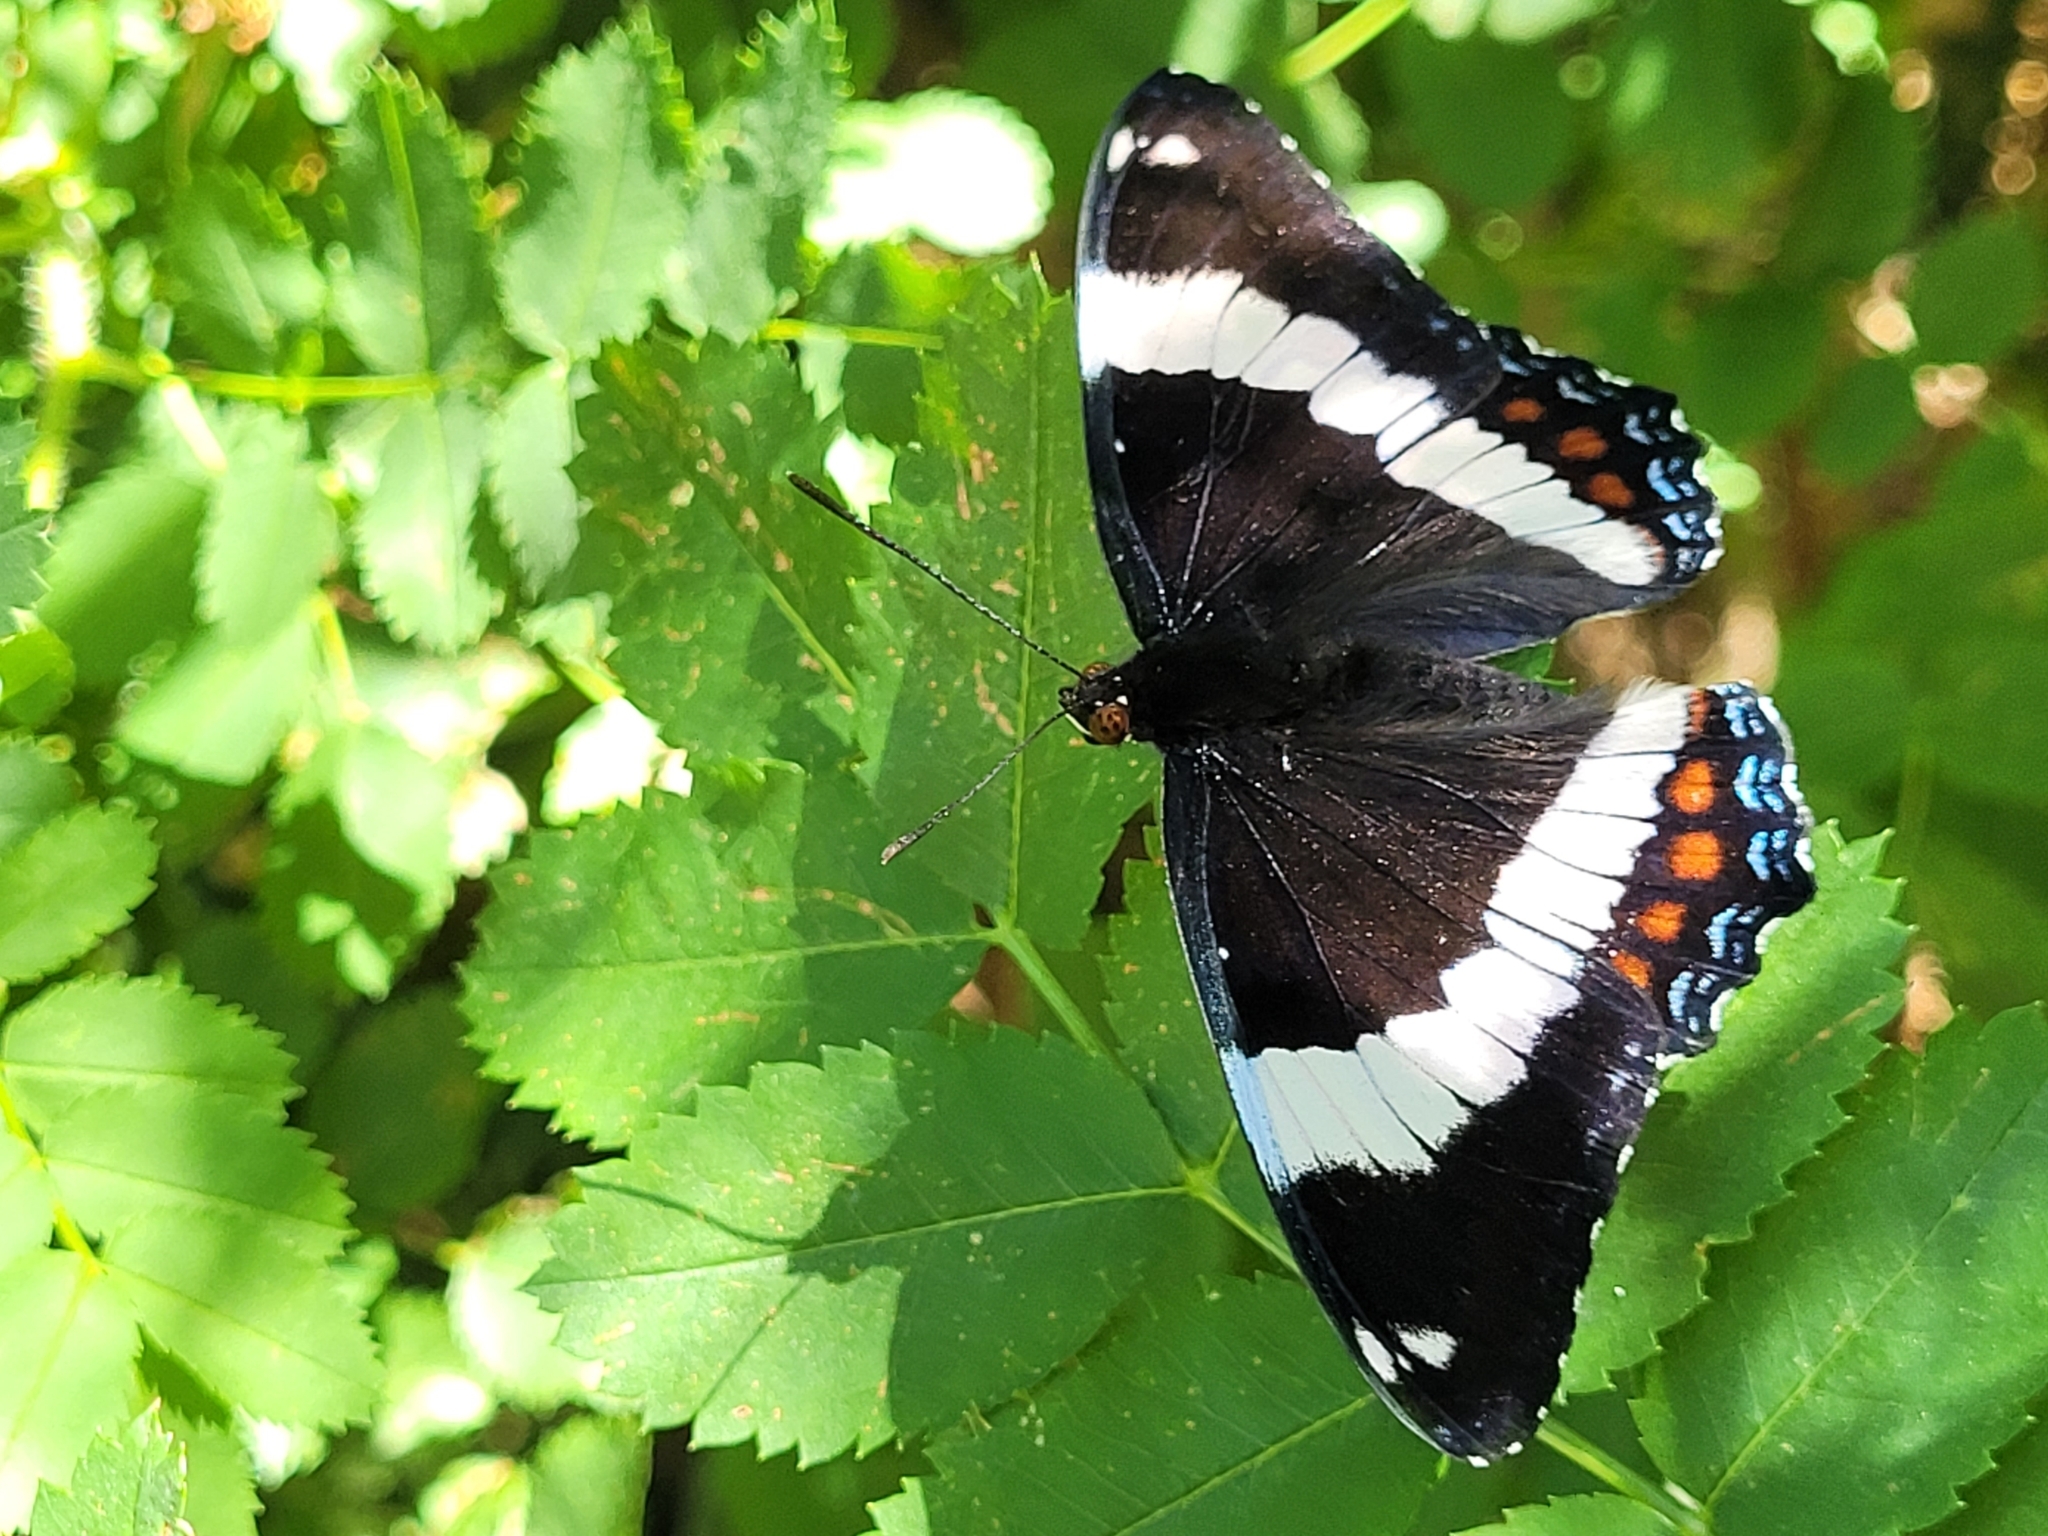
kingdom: Animalia
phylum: Arthropoda
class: Insecta
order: Lepidoptera
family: Nymphalidae
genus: Limenitis
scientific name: Limenitis arthemis
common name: Red-spotted admiral
